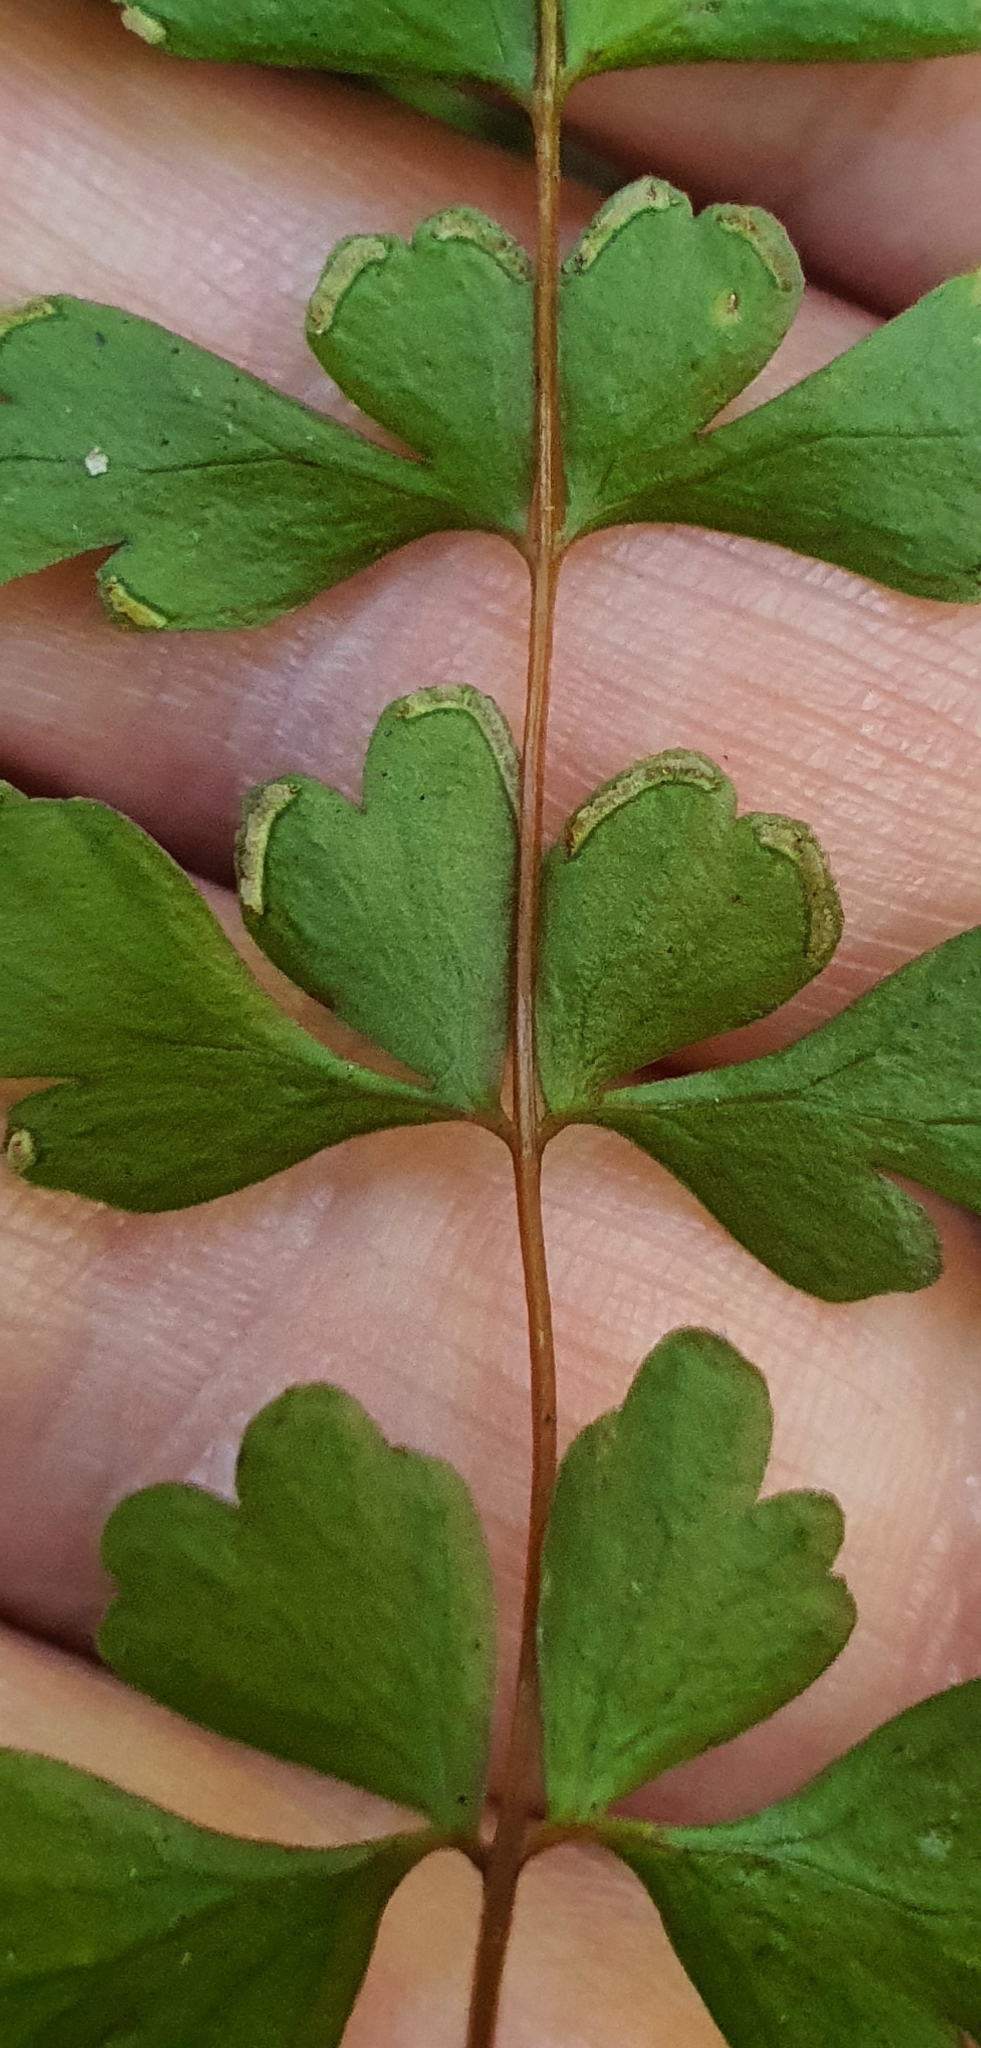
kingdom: Plantae
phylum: Tracheophyta
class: Polypodiopsida
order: Polypodiales
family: Lindsaeaceae
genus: Lindsaea
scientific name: Lindsaea trichomanoides
